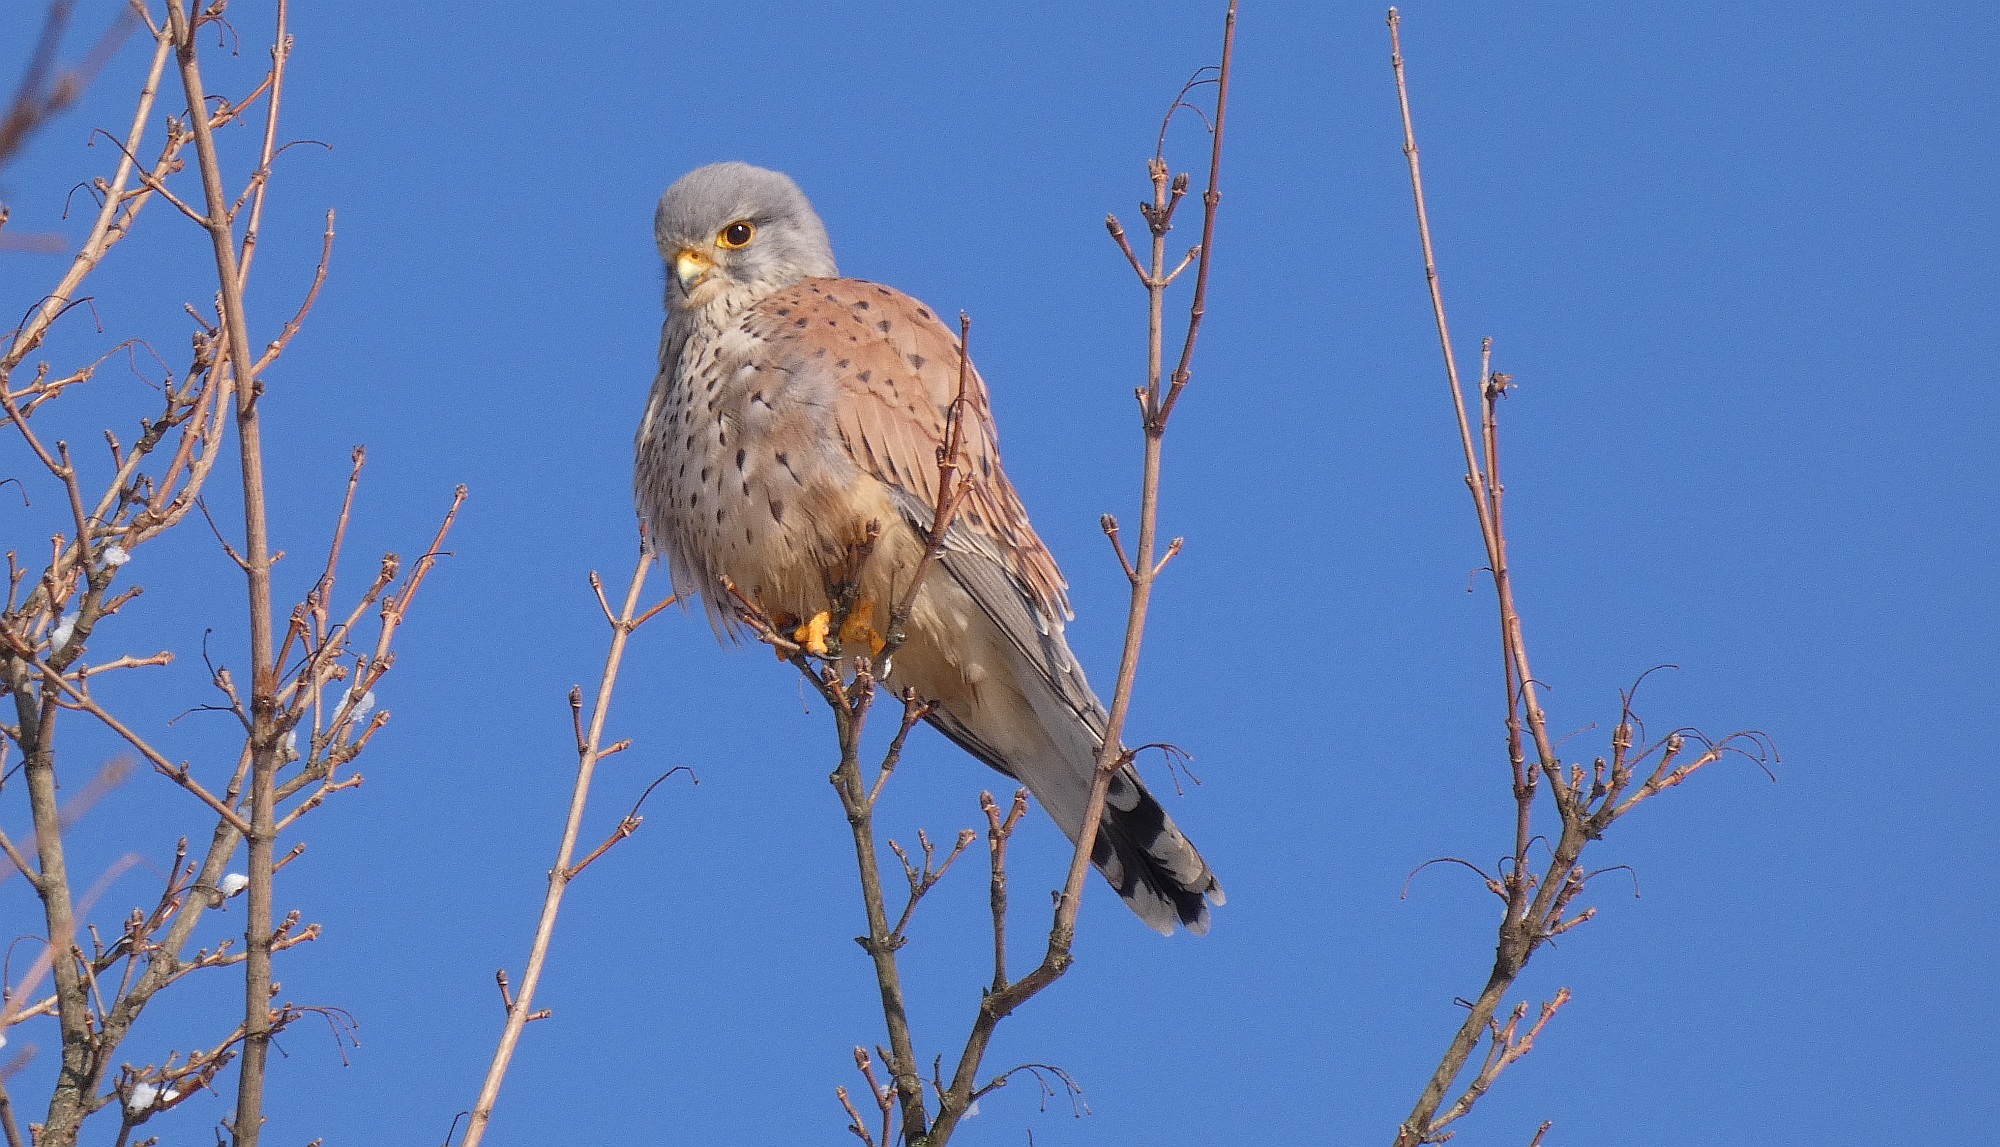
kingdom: Animalia
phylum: Chordata
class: Aves
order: Falconiformes
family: Falconidae
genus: Falco
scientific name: Falco tinnunculus
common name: Common kestrel
